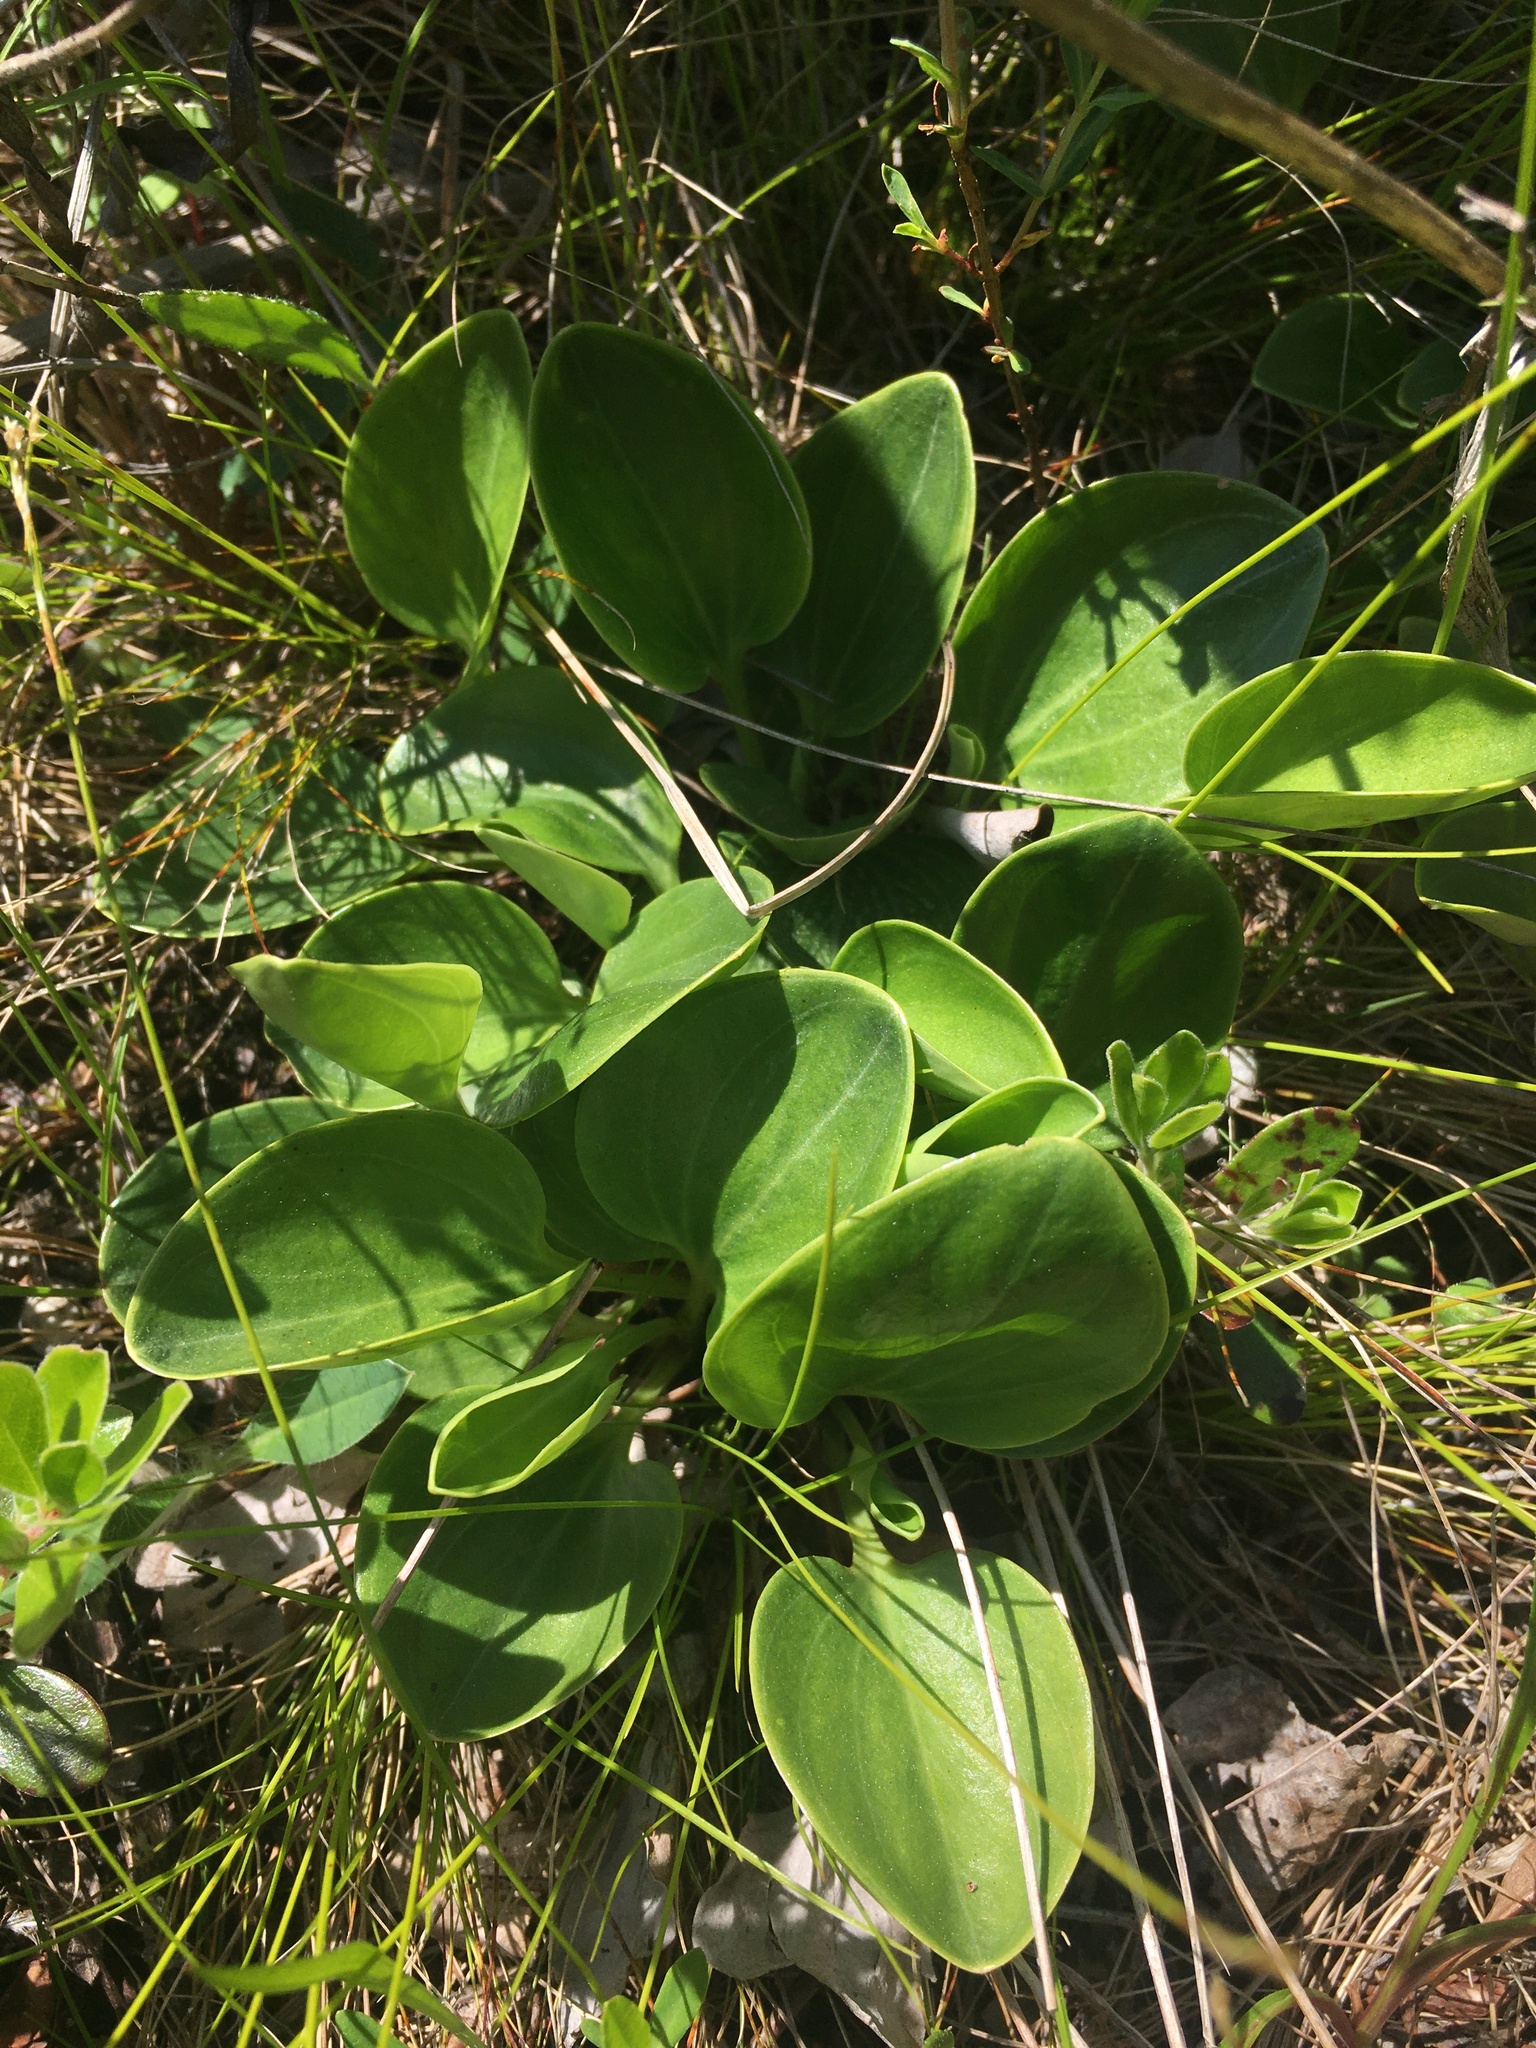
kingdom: Plantae
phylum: Tracheophyta
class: Magnoliopsida
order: Celastrales
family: Parnassiaceae
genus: Parnassia
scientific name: Parnassia glauca
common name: American grass-of-parnassus
